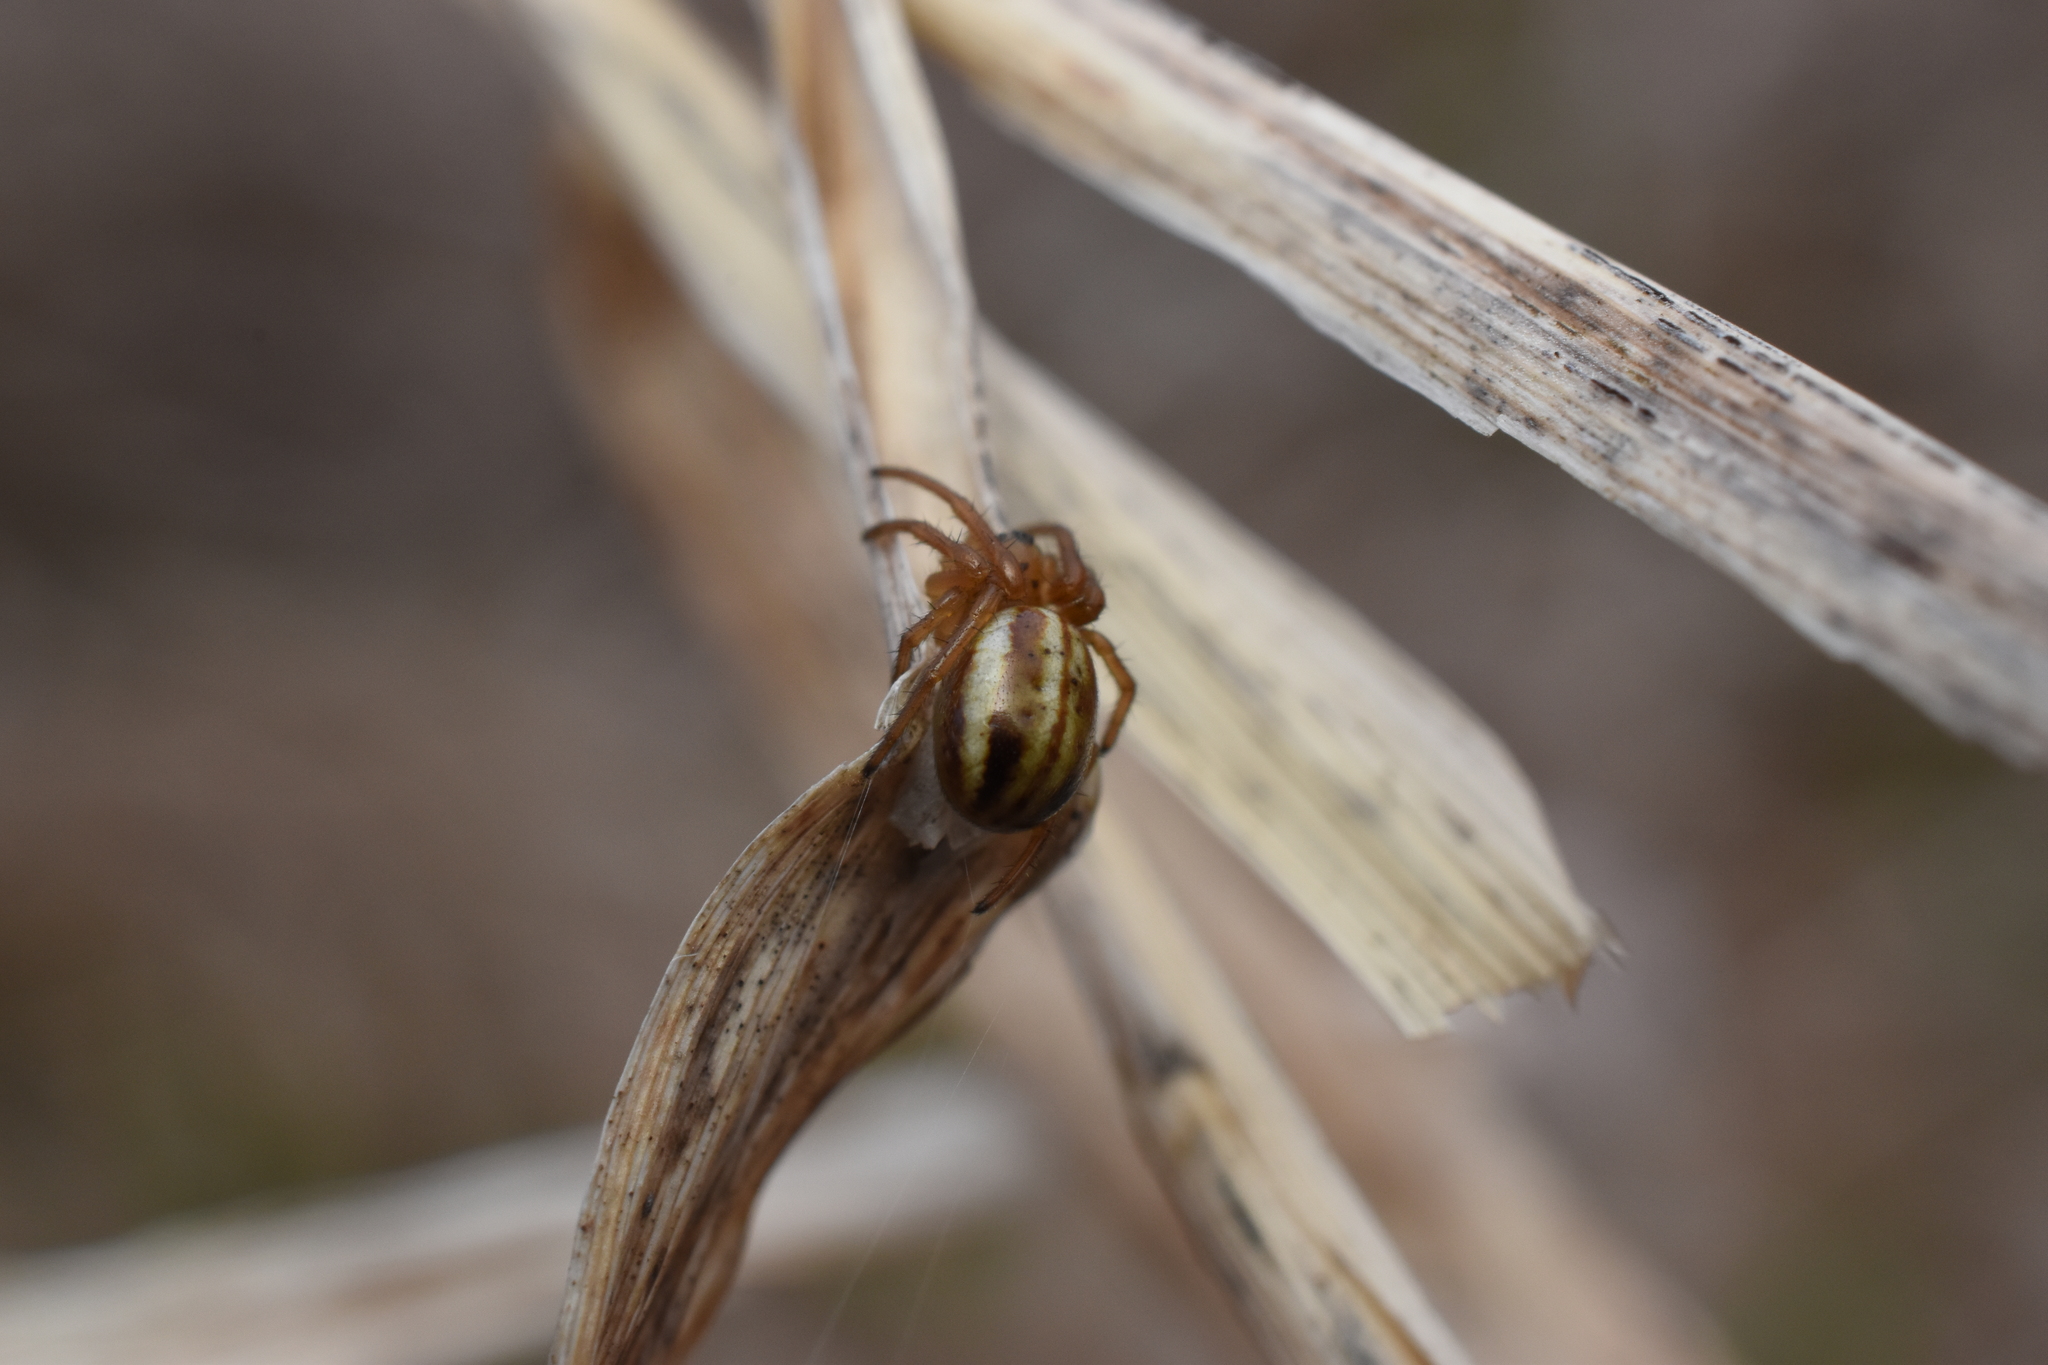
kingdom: Animalia
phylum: Arthropoda
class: Arachnida
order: Araneae
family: Araneidae
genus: Araneus
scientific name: Araneus pratensis
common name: Openfield orbweaver
